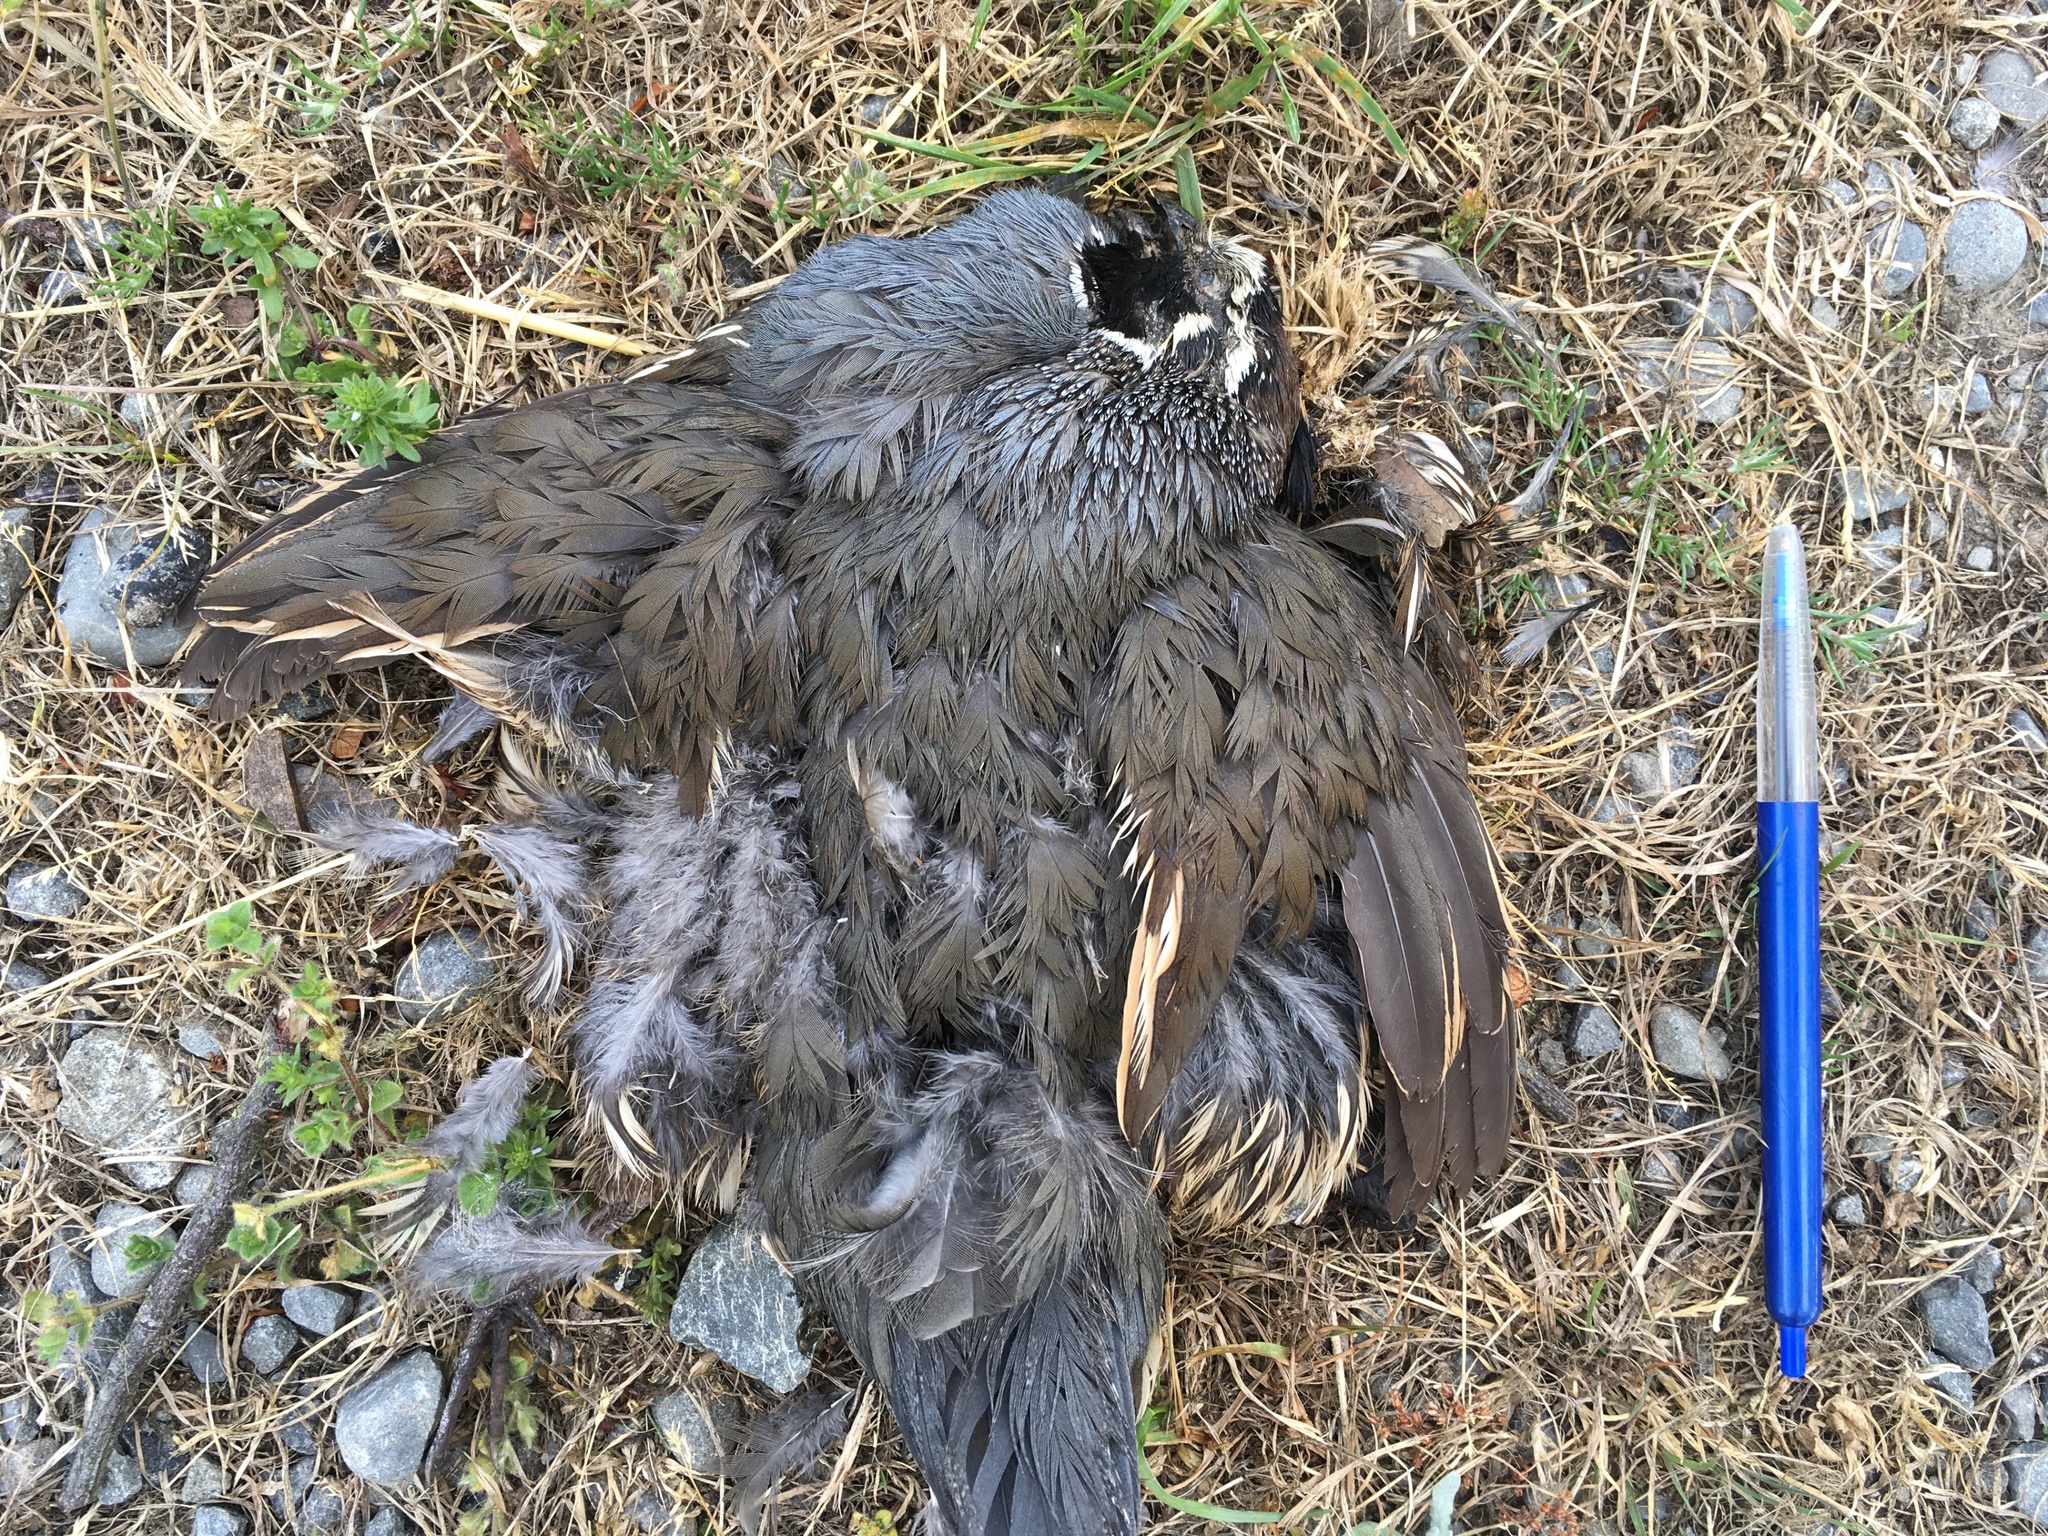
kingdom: Animalia
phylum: Chordata
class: Aves
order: Galliformes
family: Odontophoridae
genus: Callipepla
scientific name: Callipepla californica
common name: California quail
